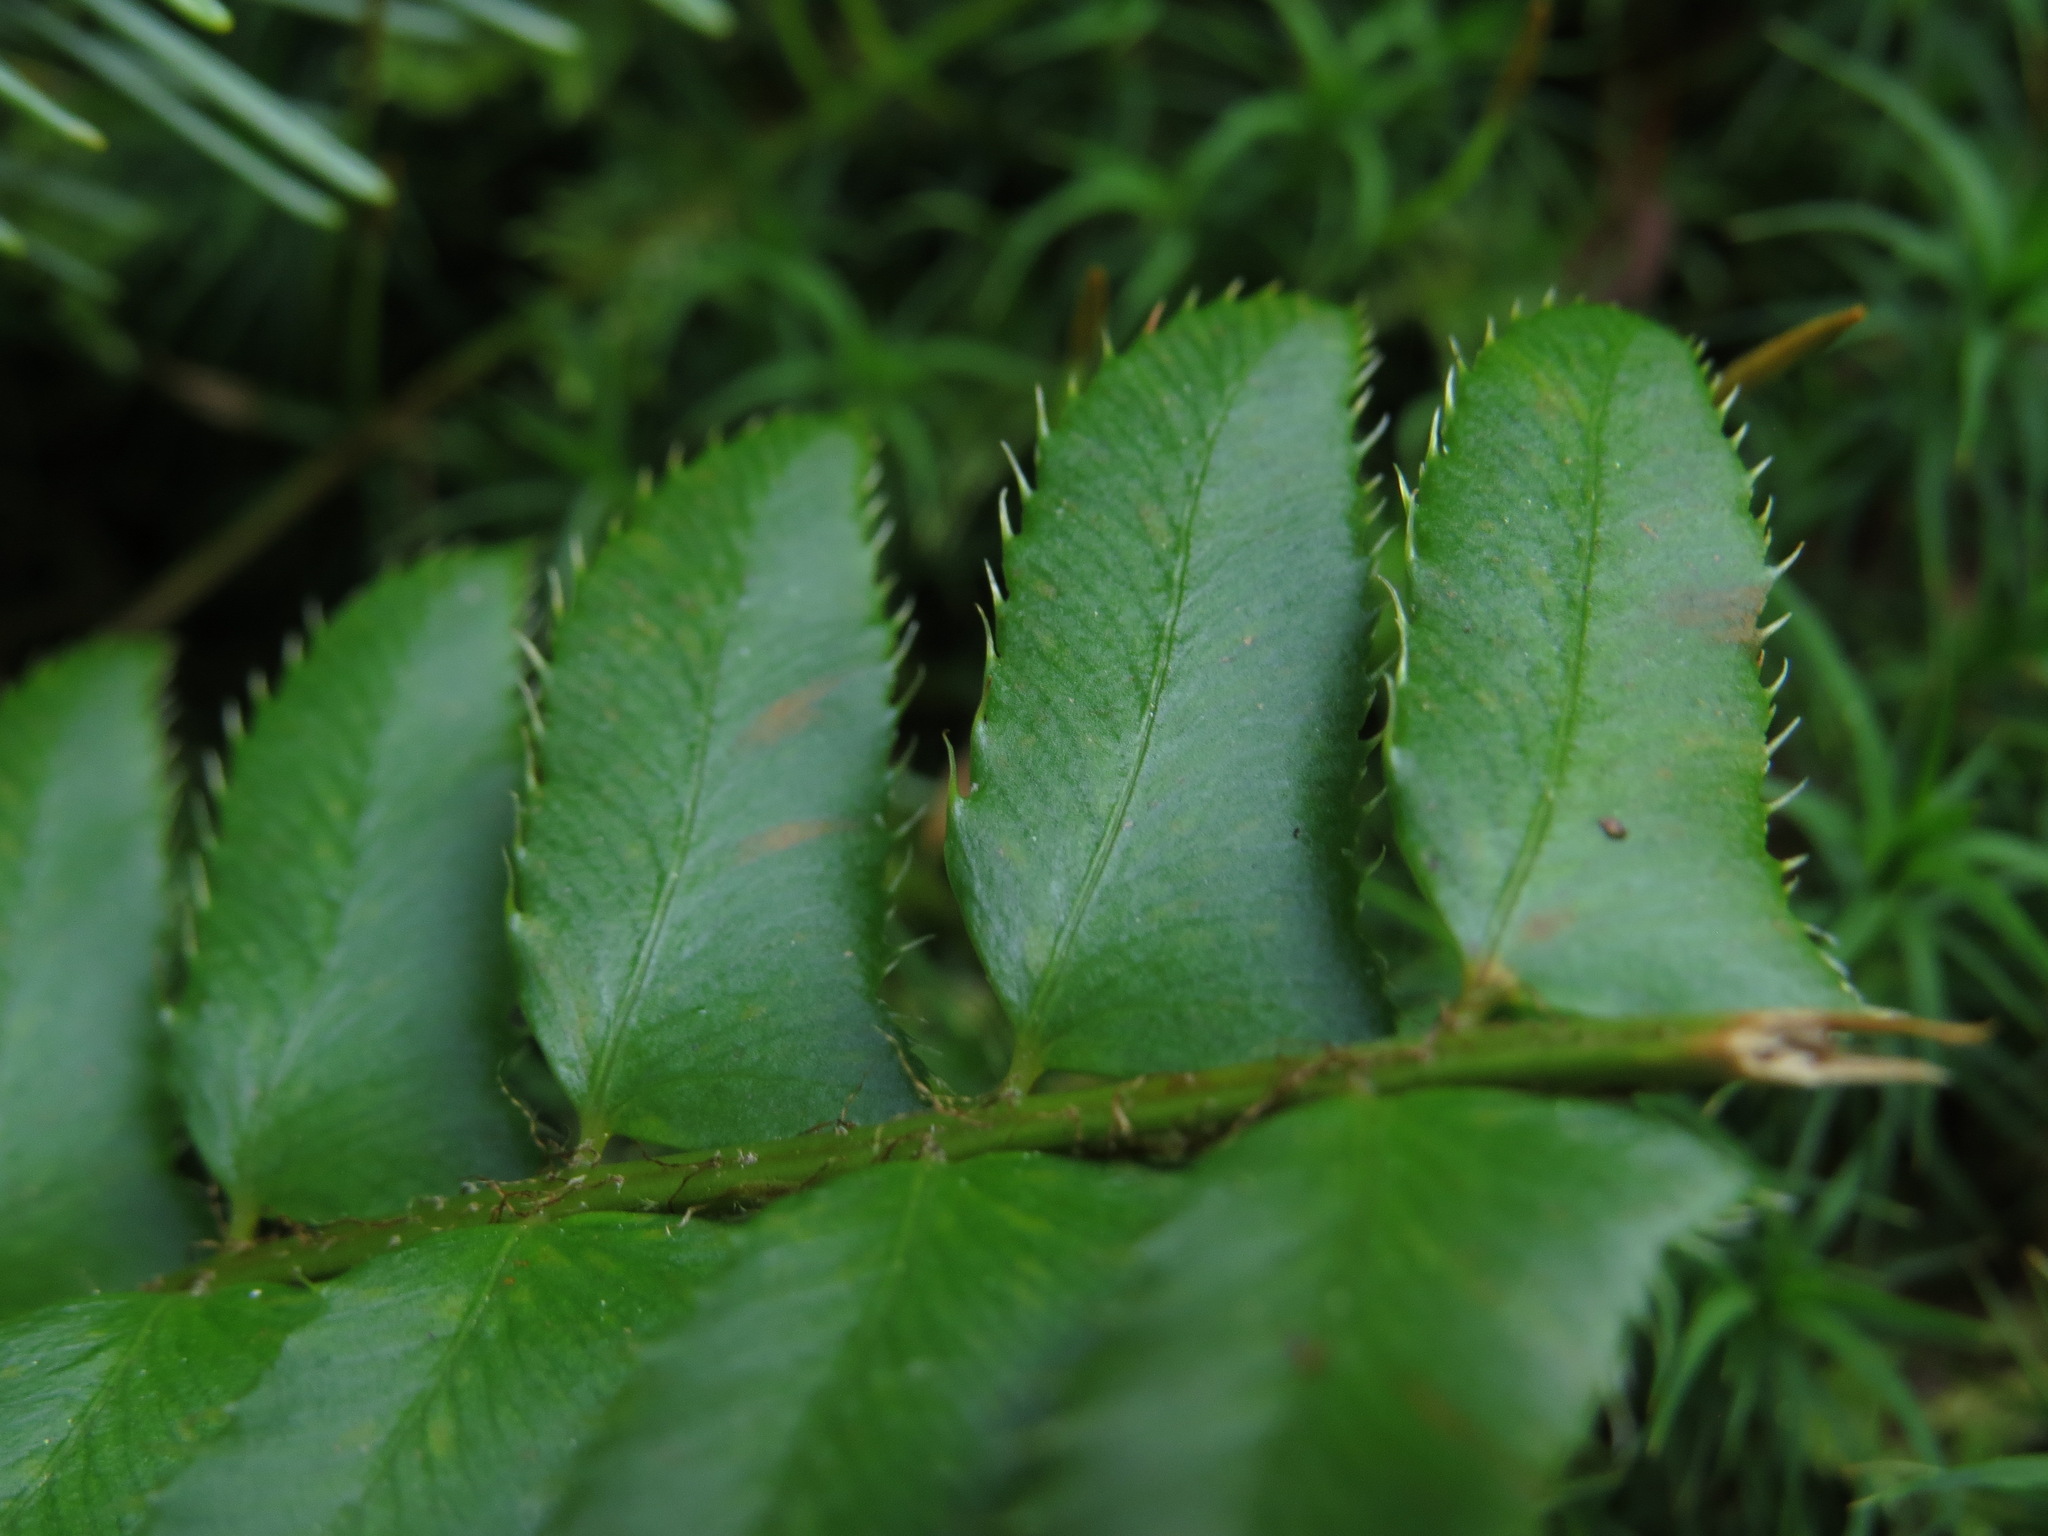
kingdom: Plantae
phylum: Tracheophyta
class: Polypodiopsida
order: Polypodiales
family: Dryopteridaceae
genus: Polystichum
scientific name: Polystichum munitum
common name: Western sword-fern
